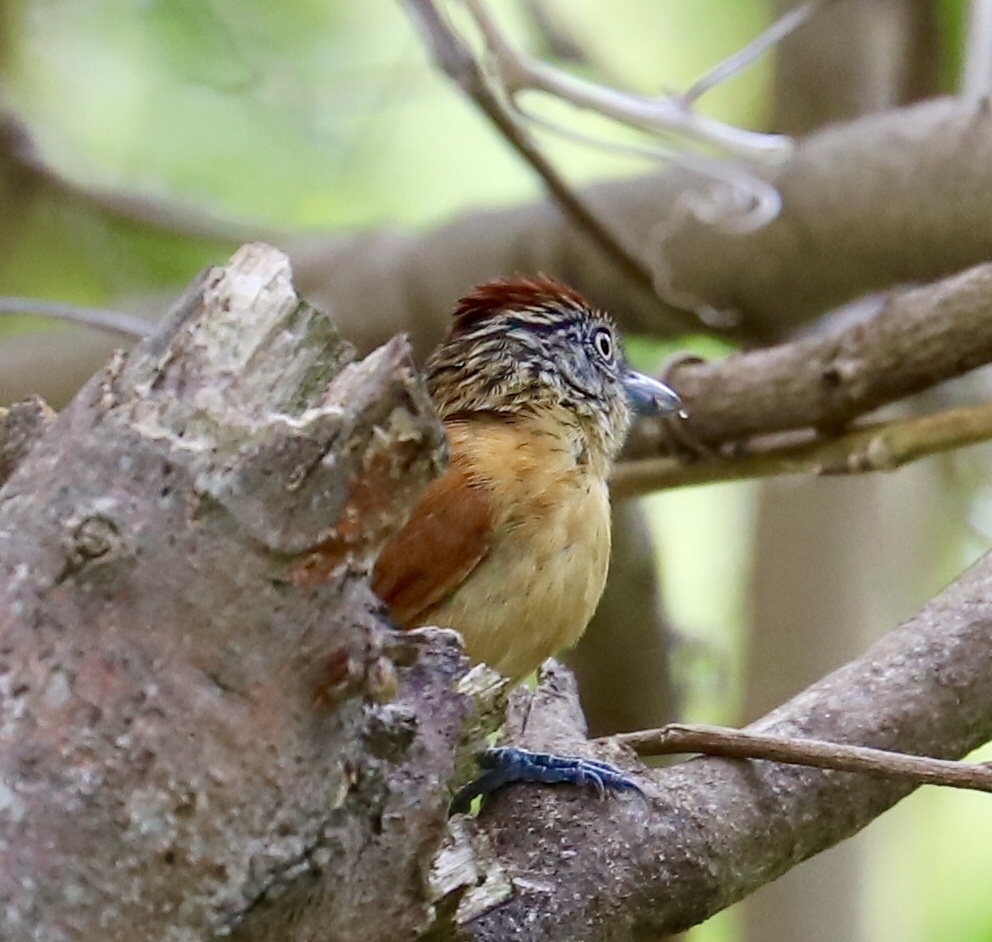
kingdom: Animalia
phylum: Chordata
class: Aves
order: Passeriformes
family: Thamnophilidae
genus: Thamnophilus
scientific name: Thamnophilus doliatus
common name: Barred antshrike
